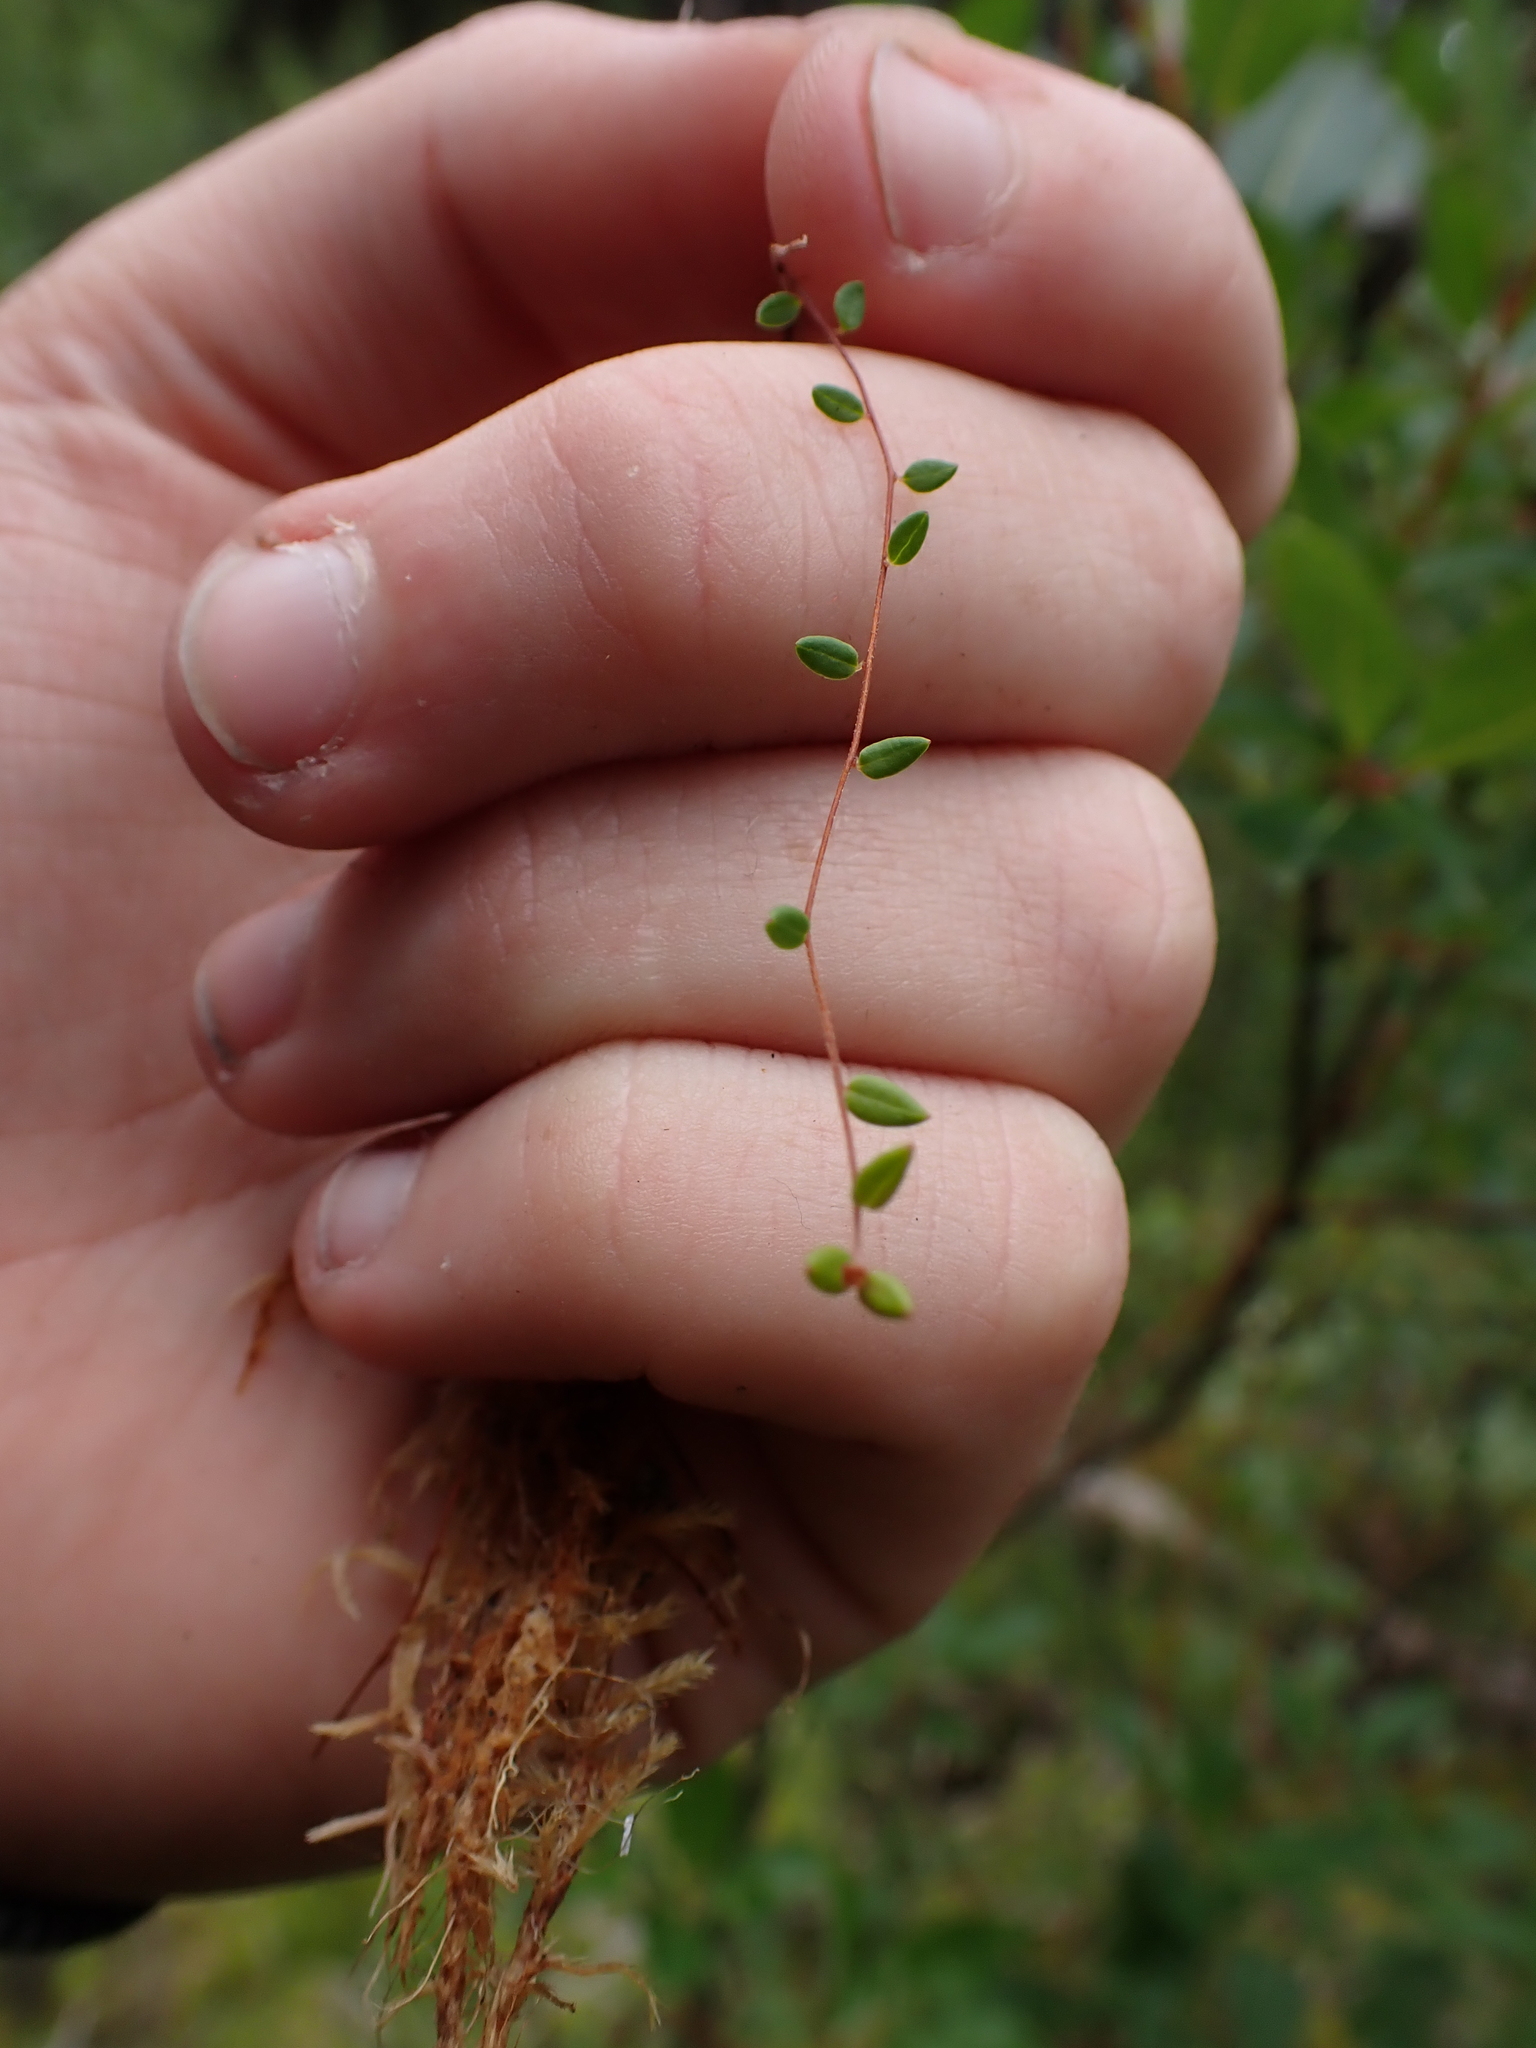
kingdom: Plantae
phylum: Tracheophyta
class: Magnoliopsida
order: Ericales
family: Ericaceae
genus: Vaccinium
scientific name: Vaccinium oxycoccos
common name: Cranberry
